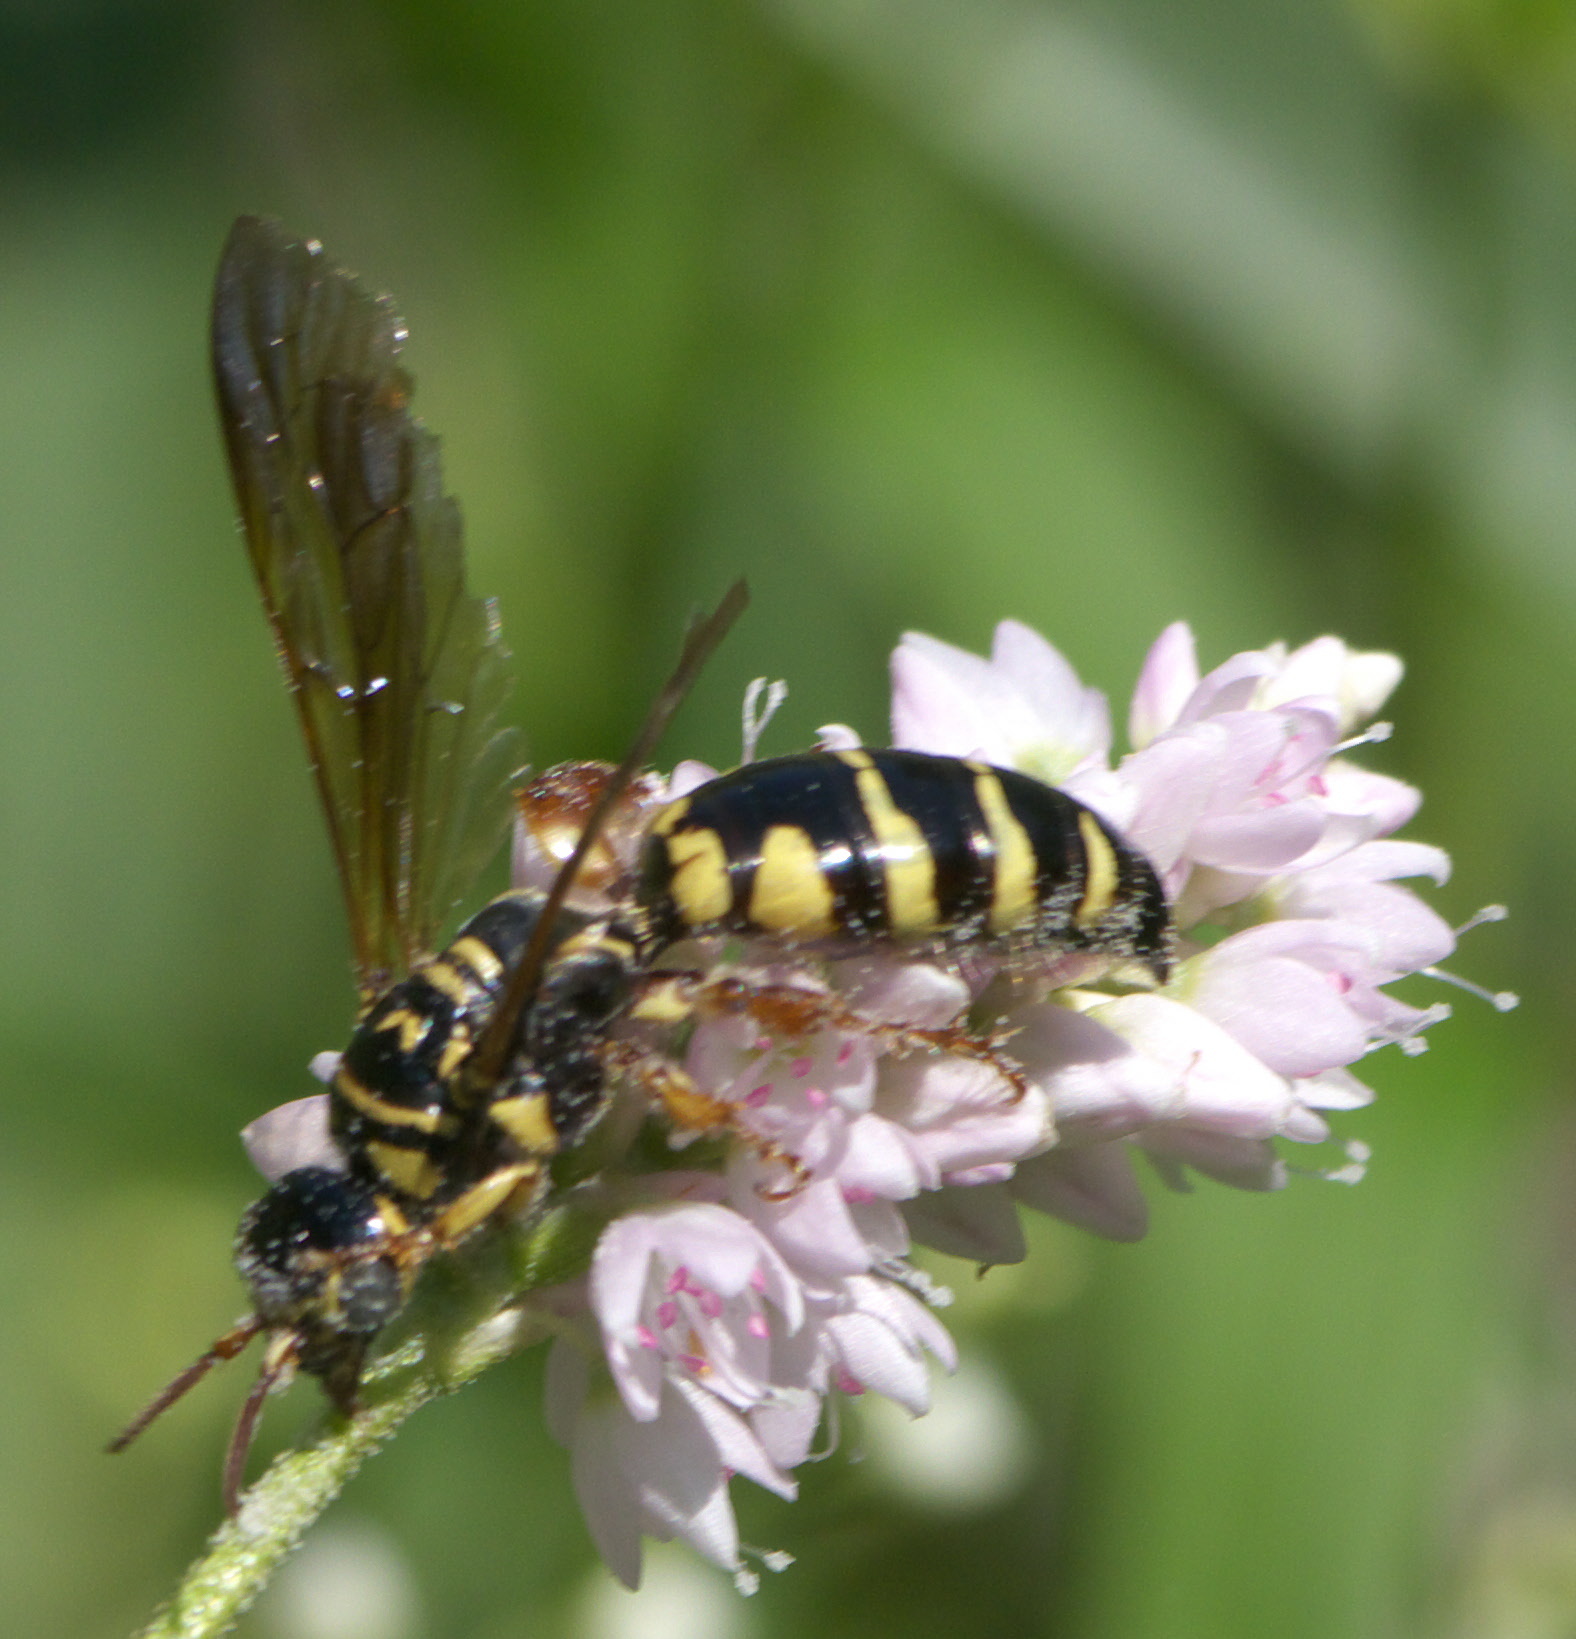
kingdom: Animalia
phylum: Arthropoda
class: Insecta
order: Hymenoptera
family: Tiphiidae
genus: Myzinum
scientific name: Myzinum
